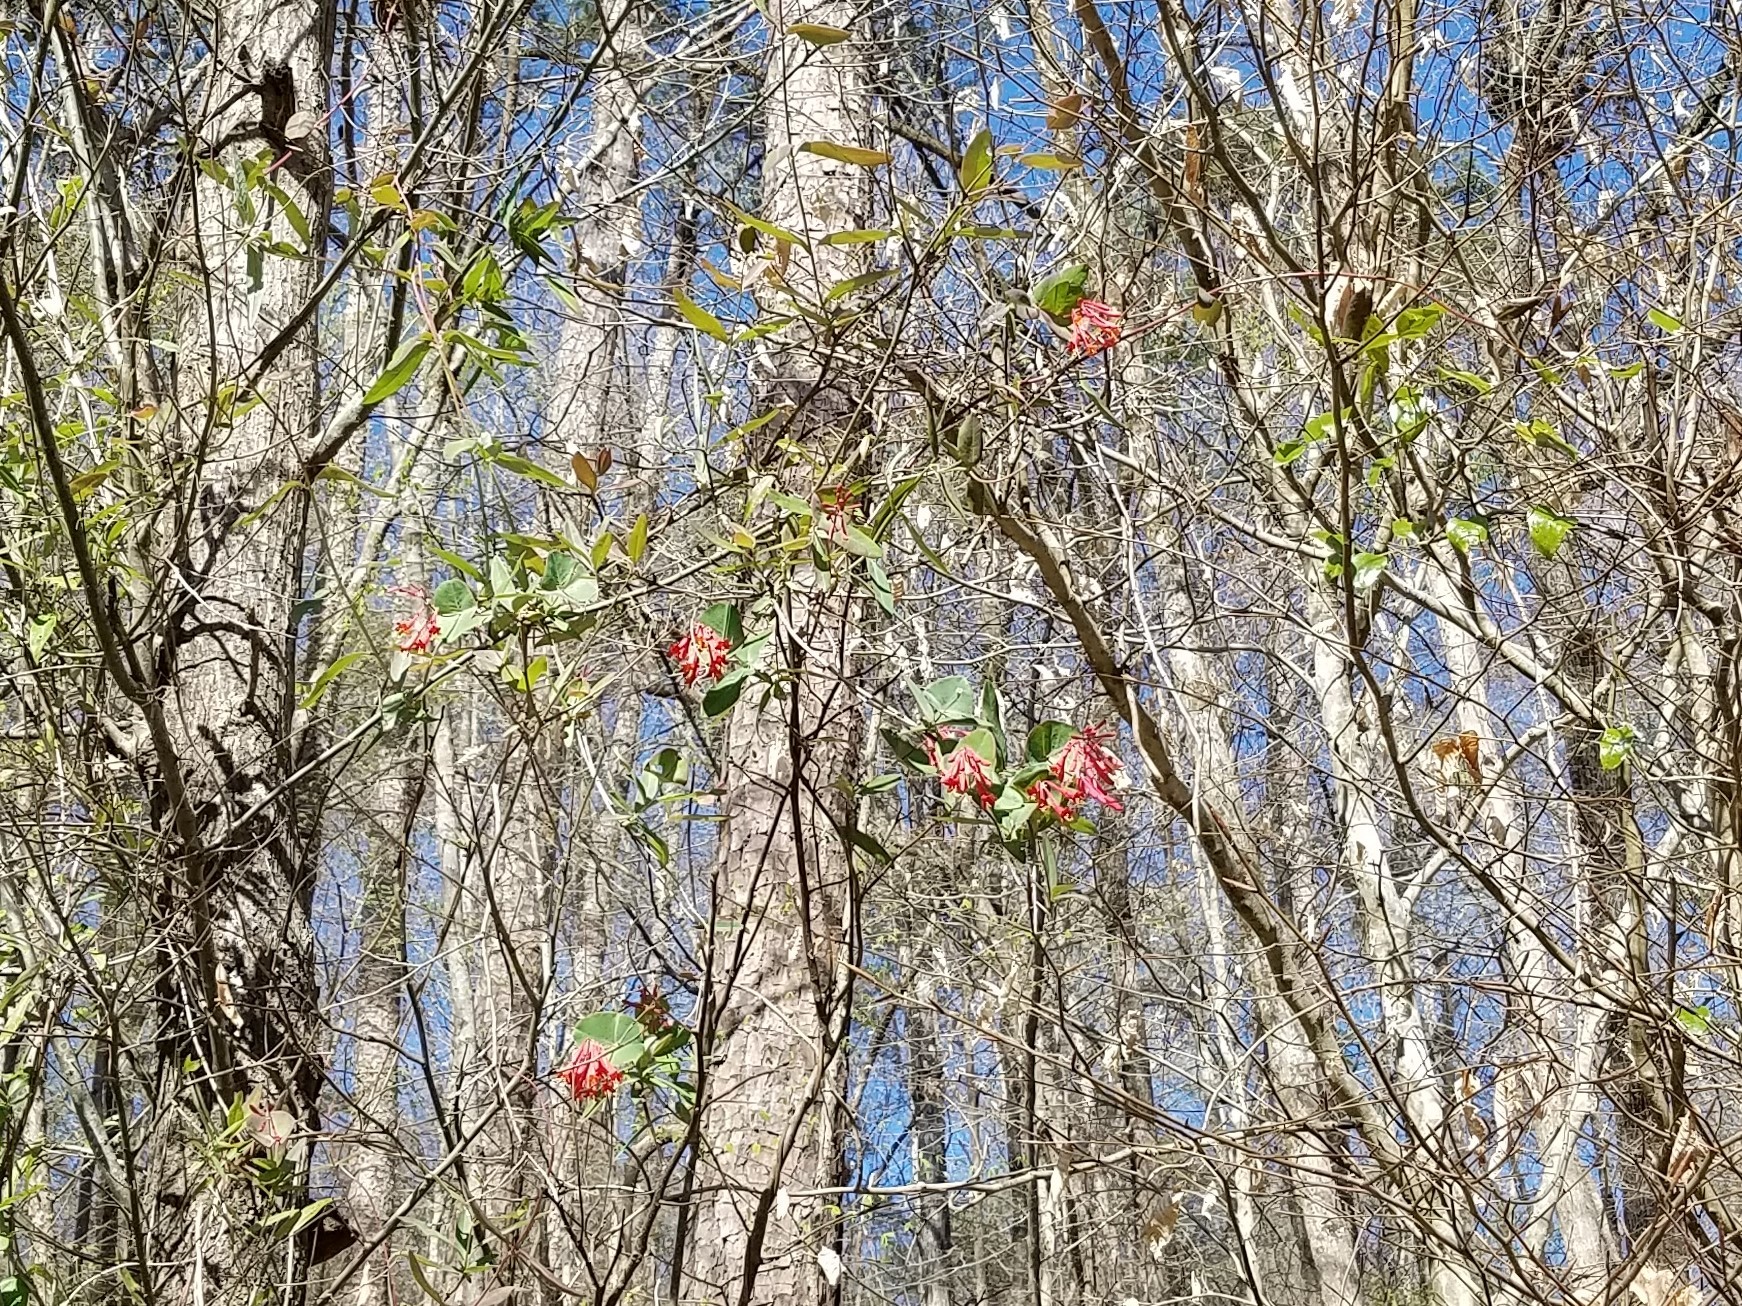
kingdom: Plantae
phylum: Tracheophyta
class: Magnoliopsida
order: Dipsacales
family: Caprifoliaceae
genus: Lonicera
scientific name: Lonicera sempervirens
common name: Coral honeysuckle
